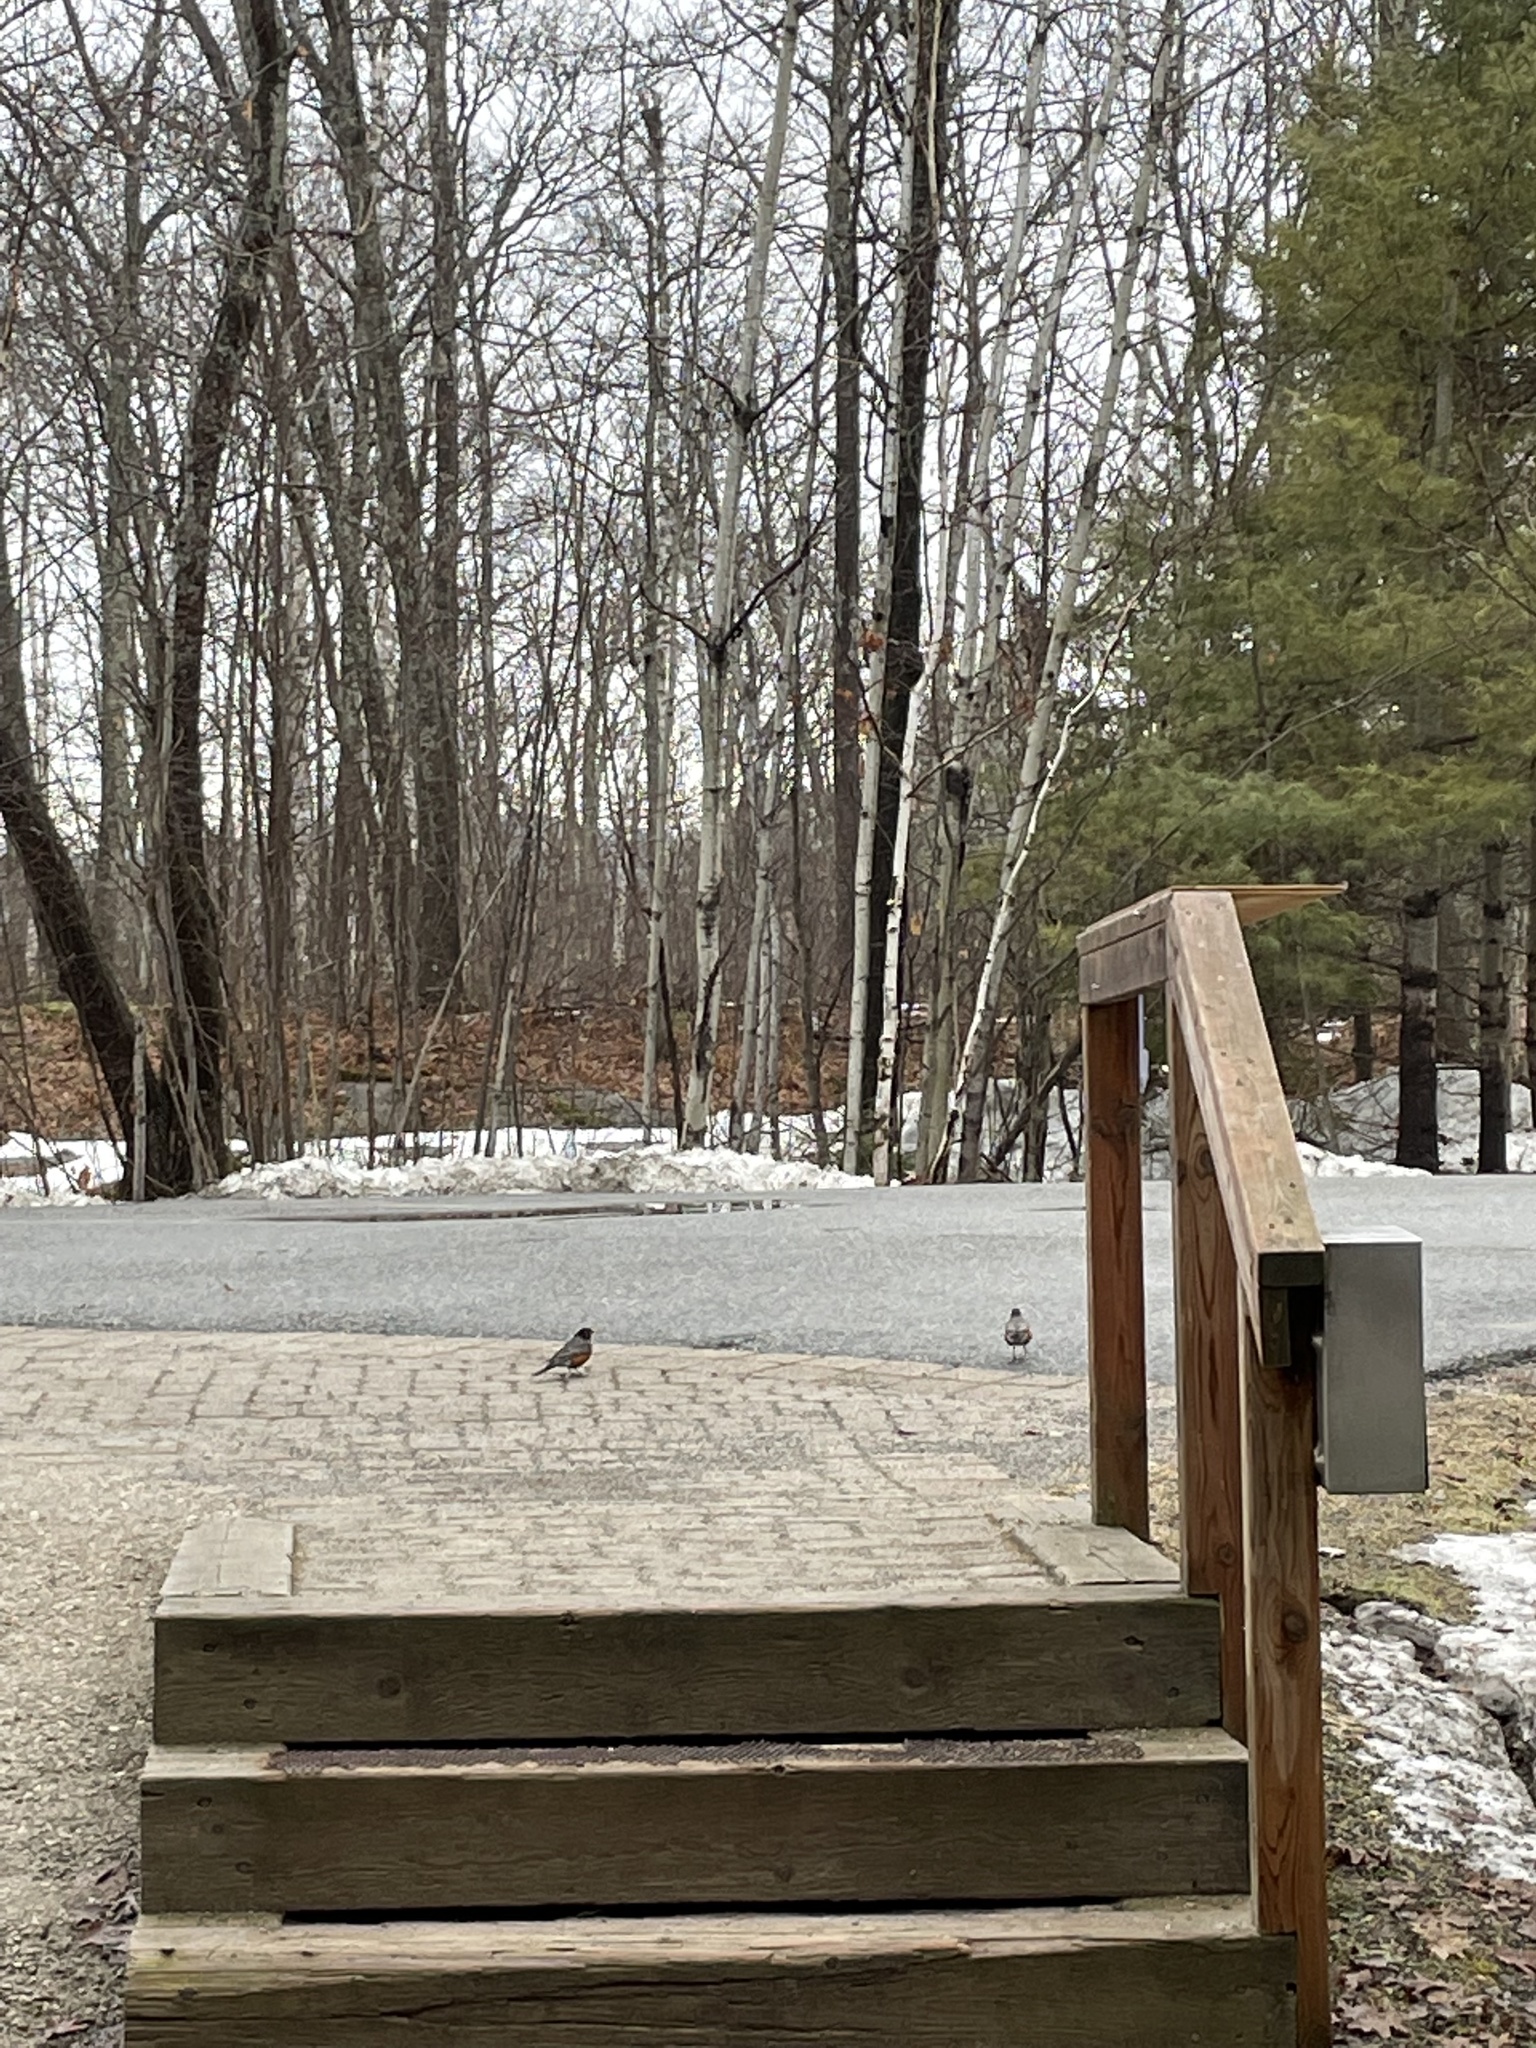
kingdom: Animalia
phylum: Chordata
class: Aves
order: Passeriformes
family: Turdidae
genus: Turdus
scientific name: Turdus migratorius
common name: American robin
